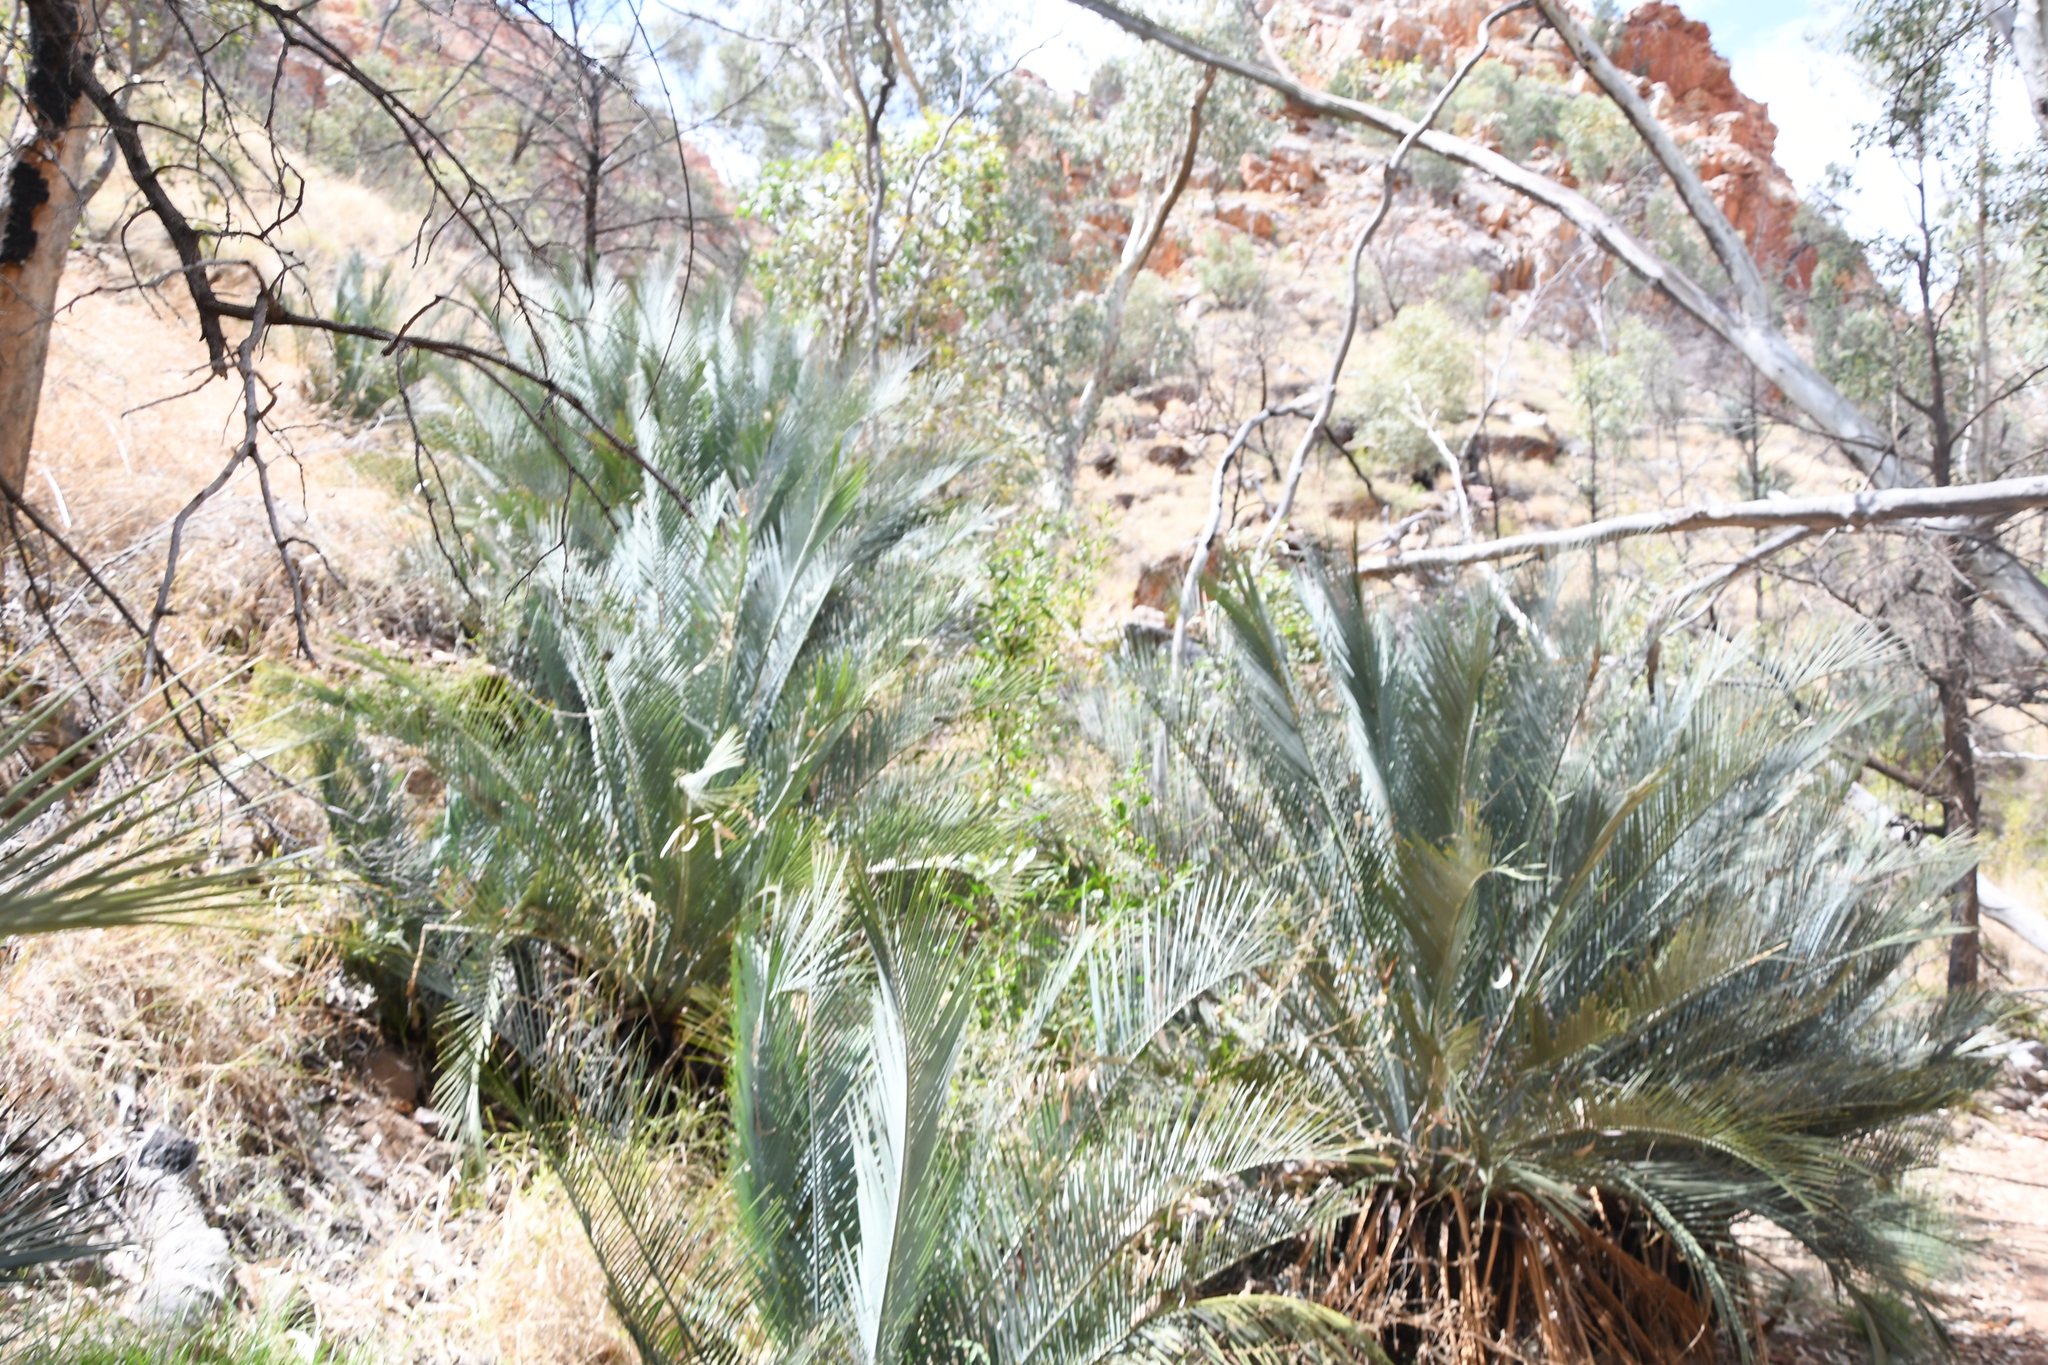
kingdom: Plantae
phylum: Tracheophyta
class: Cycadopsida
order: Cycadales
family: Zamiaceae
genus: Macrozamia
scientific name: Macrozamia macdonnellii
